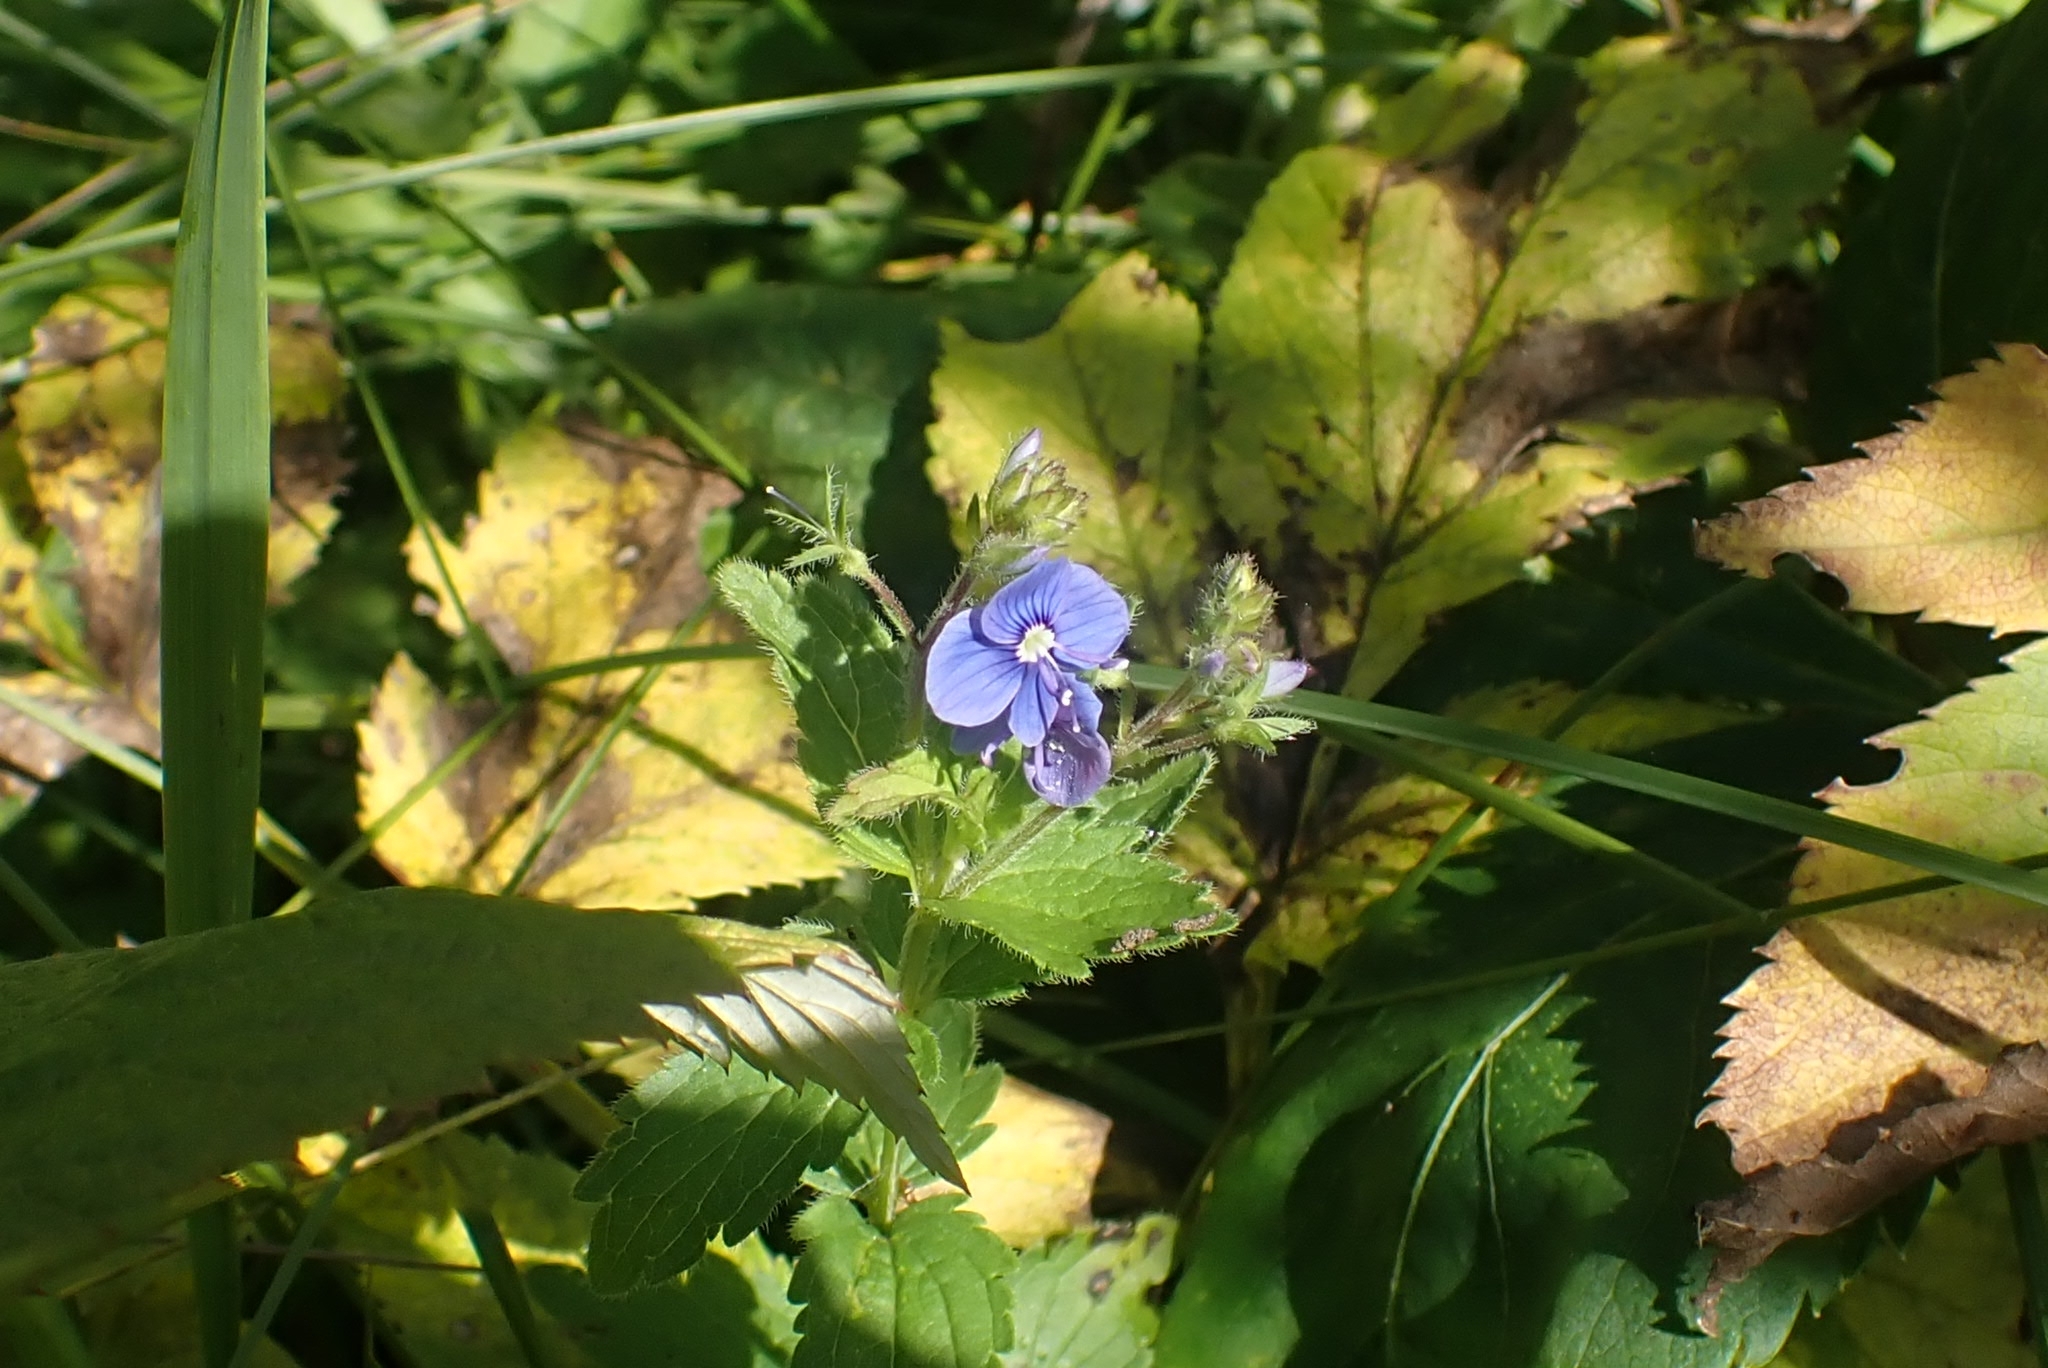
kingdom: Plantae
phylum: Tracheophyta
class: Magnoliopsida
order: Lamiales
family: Plantaginaceae
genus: Veronica
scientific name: Veronica chamaedrys
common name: Germander speedwell
